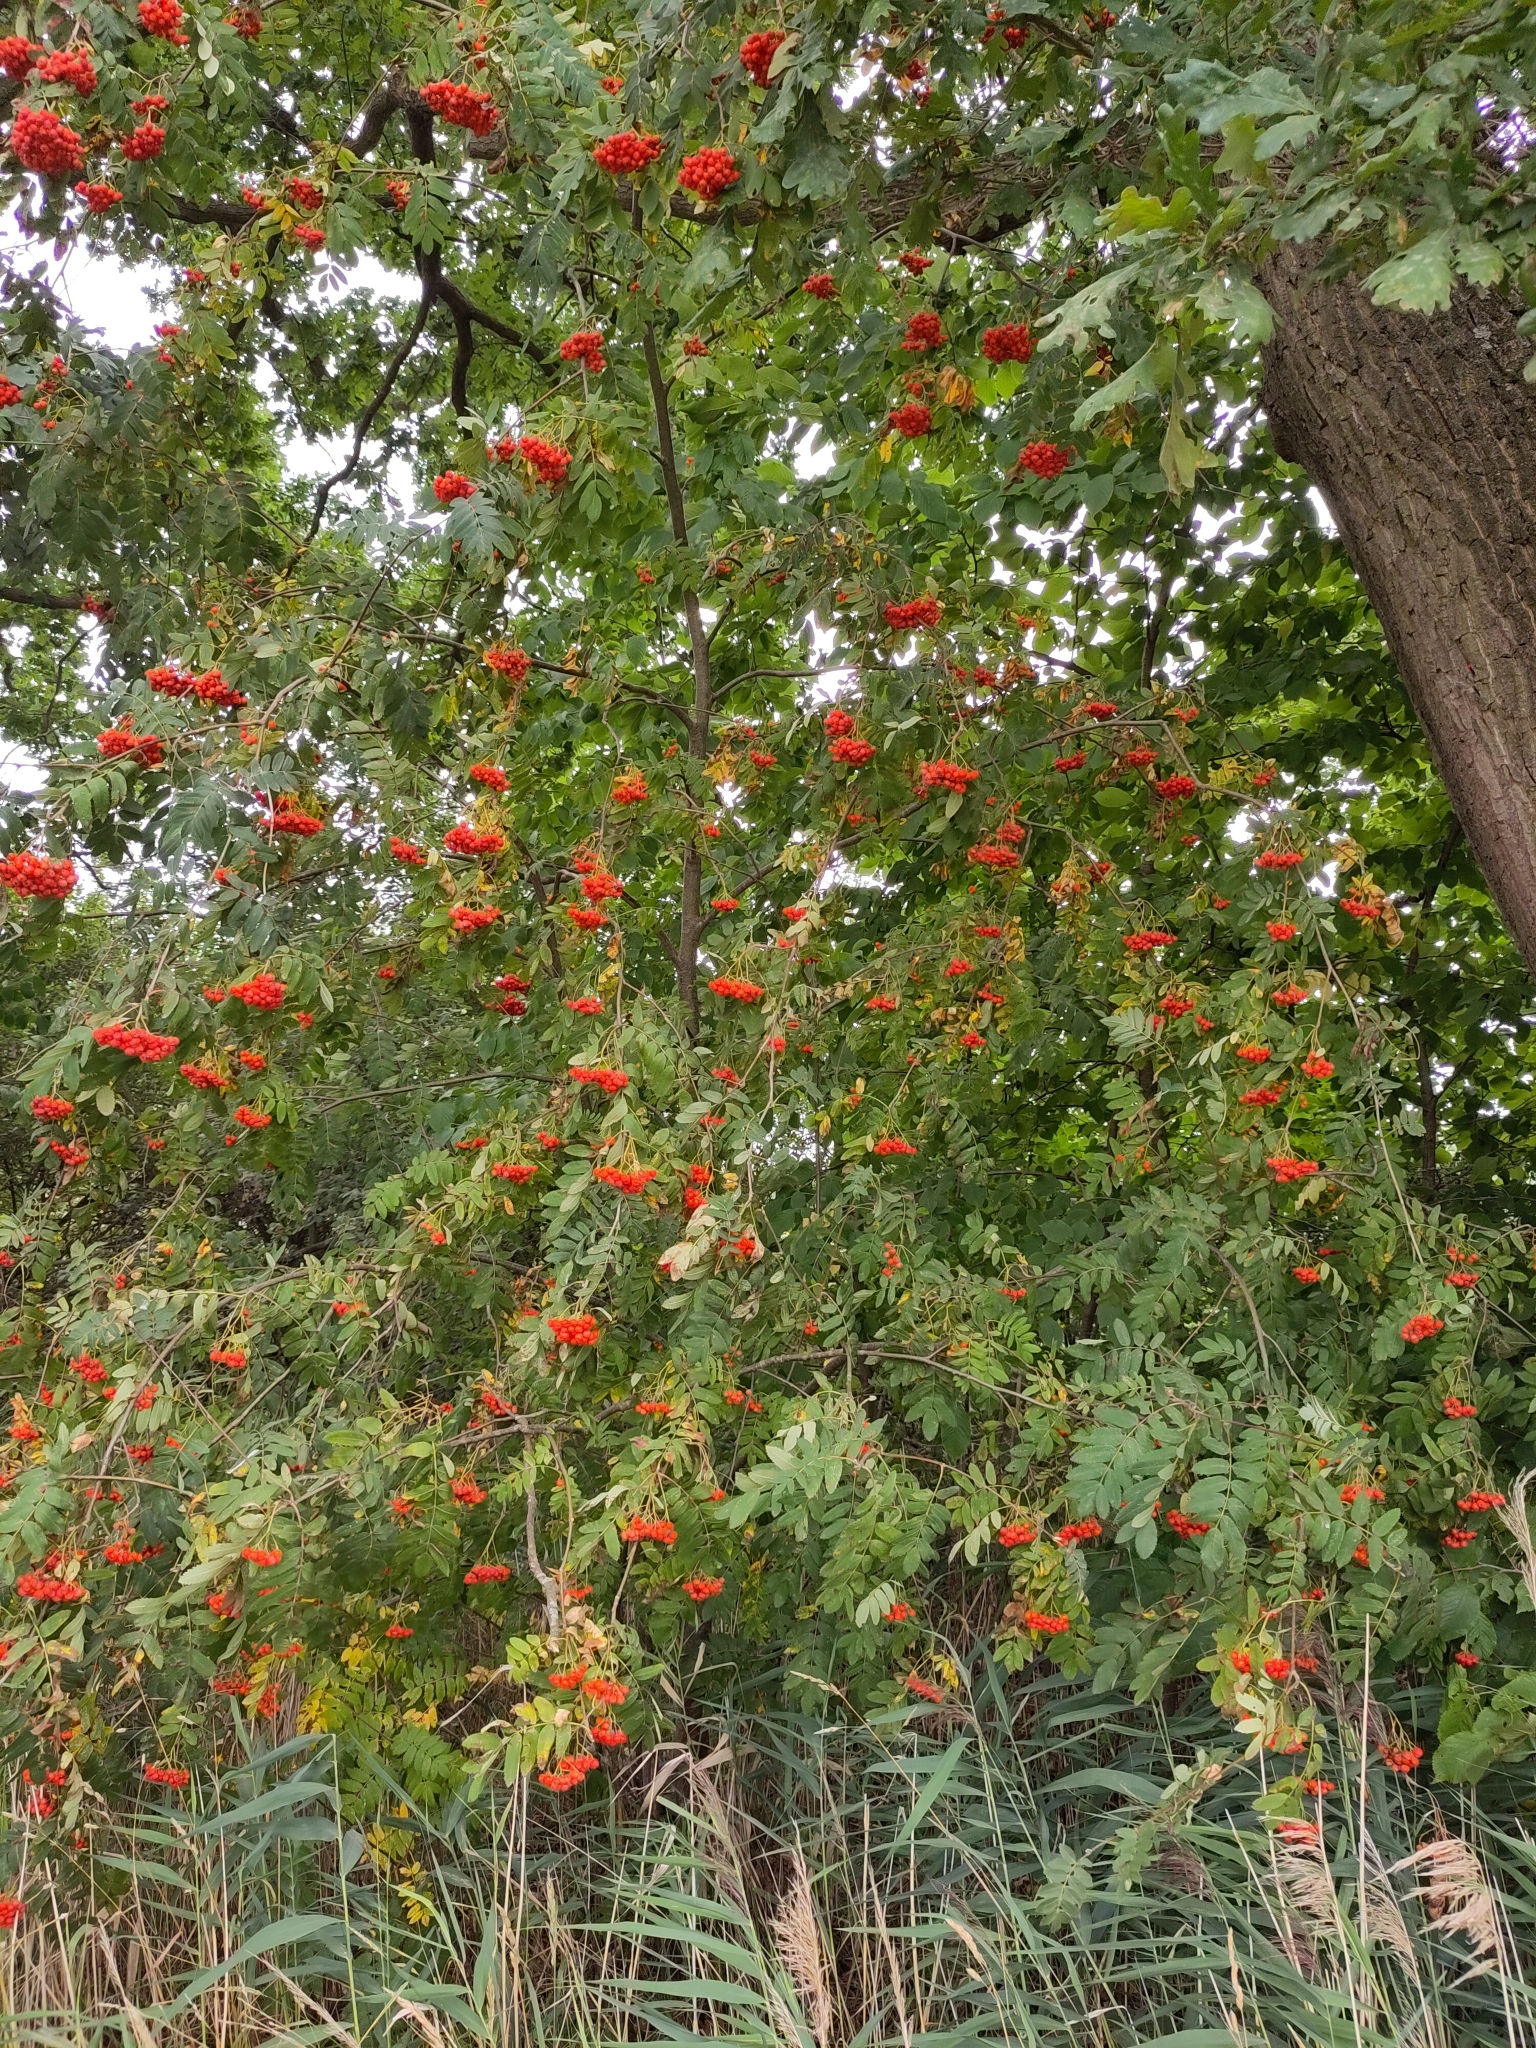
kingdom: Plantae
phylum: Tracheophyta
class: Magnoliopsida
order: Rosales
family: Rosaceae
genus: Sorbus
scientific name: Sorbus aucuparia
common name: Rowan
